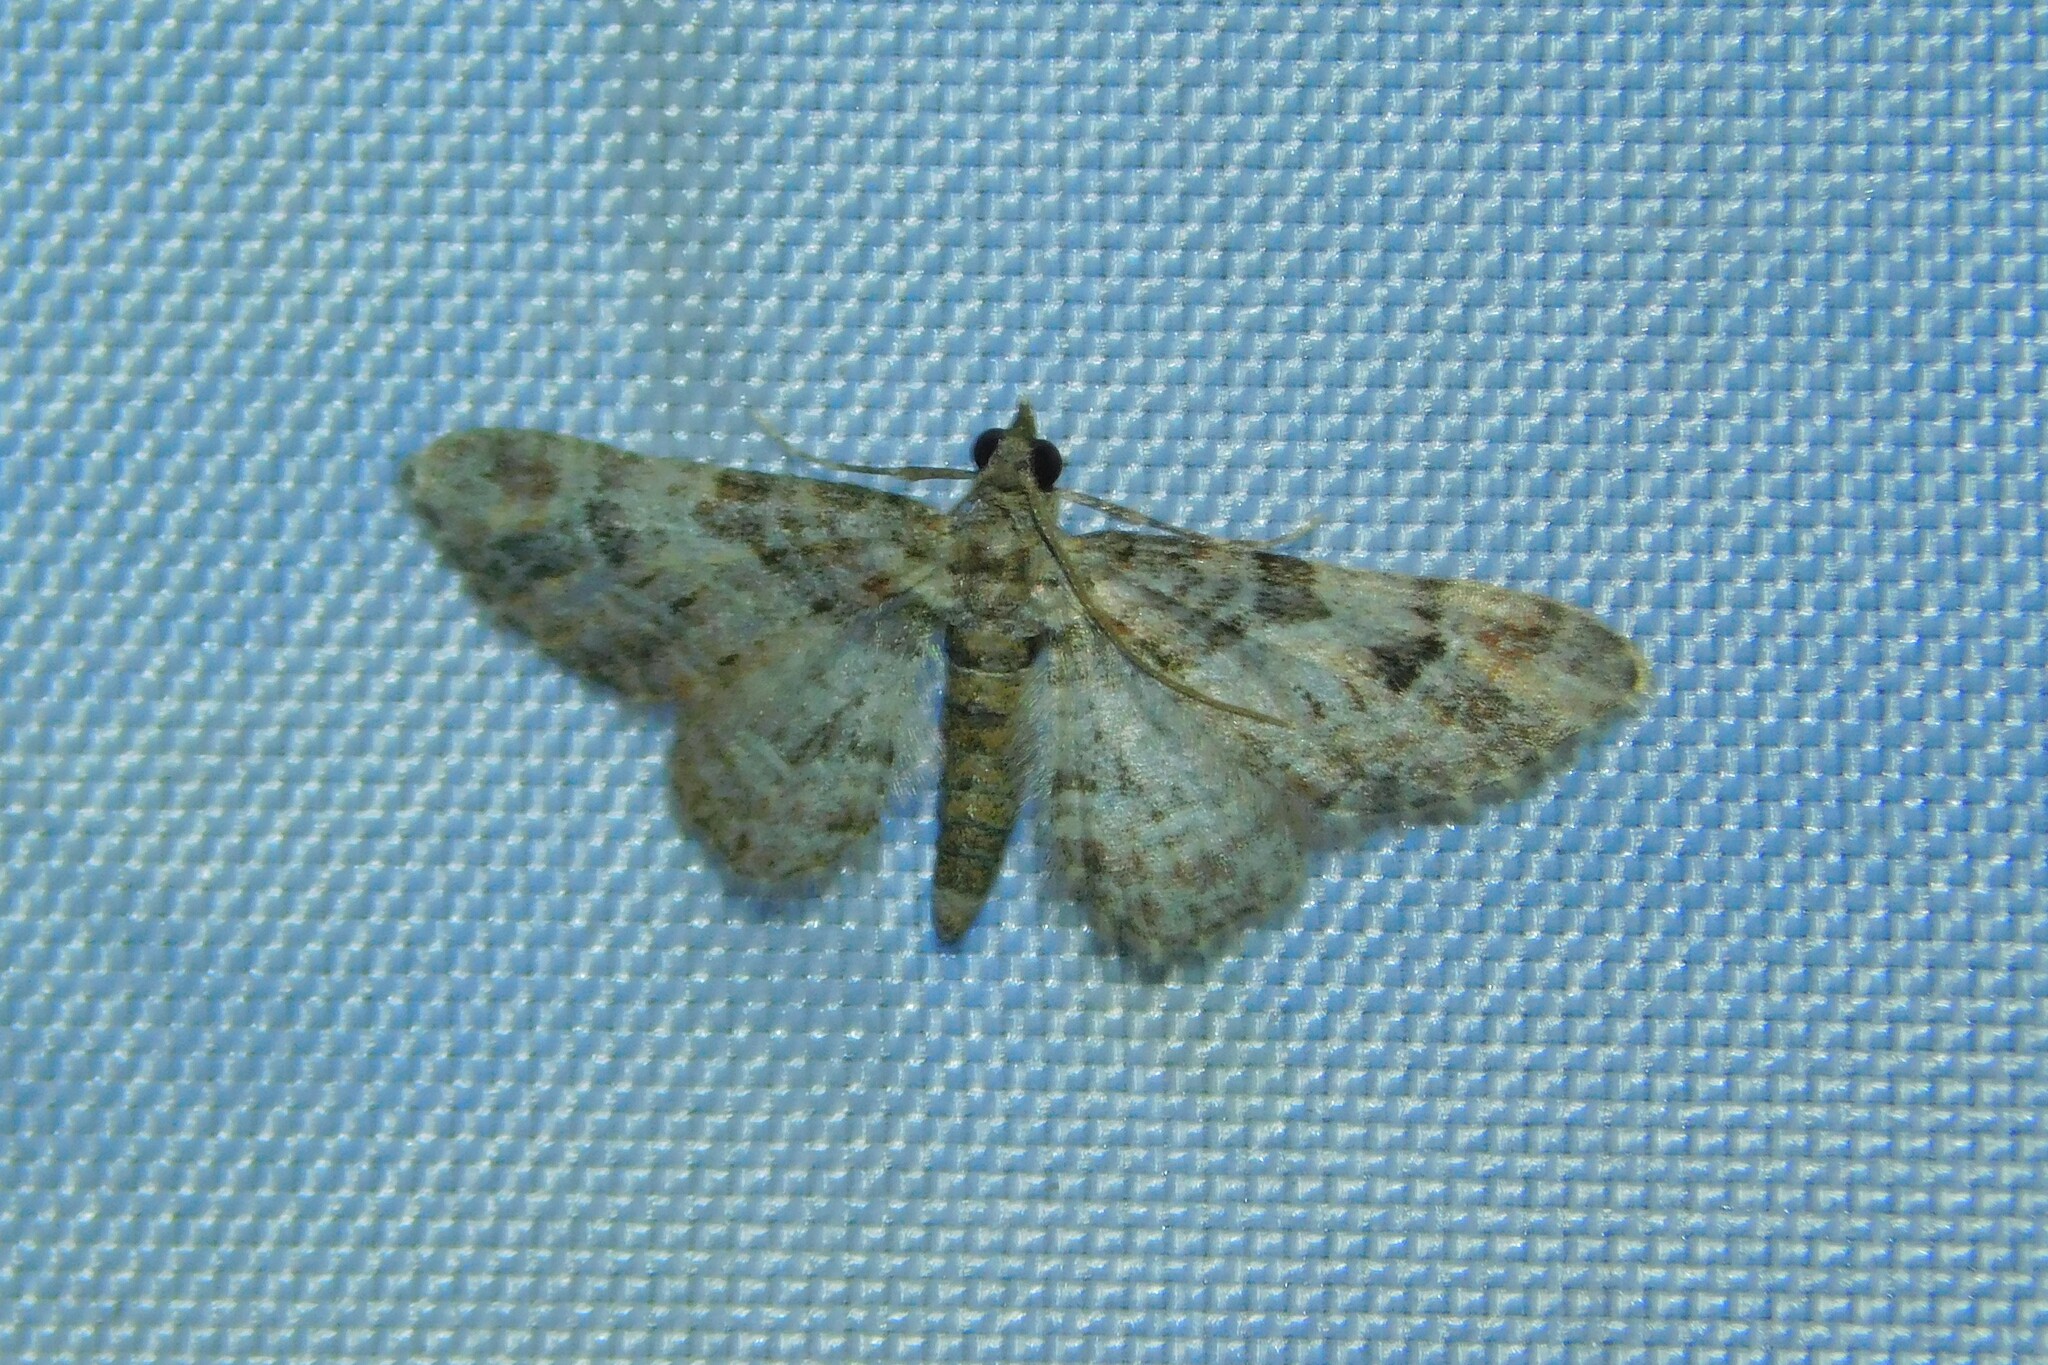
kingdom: Animalia
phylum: Arthropoda
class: Insecta
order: Lepidoptera
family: Geometridae
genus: Gymnoscelis
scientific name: Gymnoscelis rufifasciata
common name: Double-striped pug
